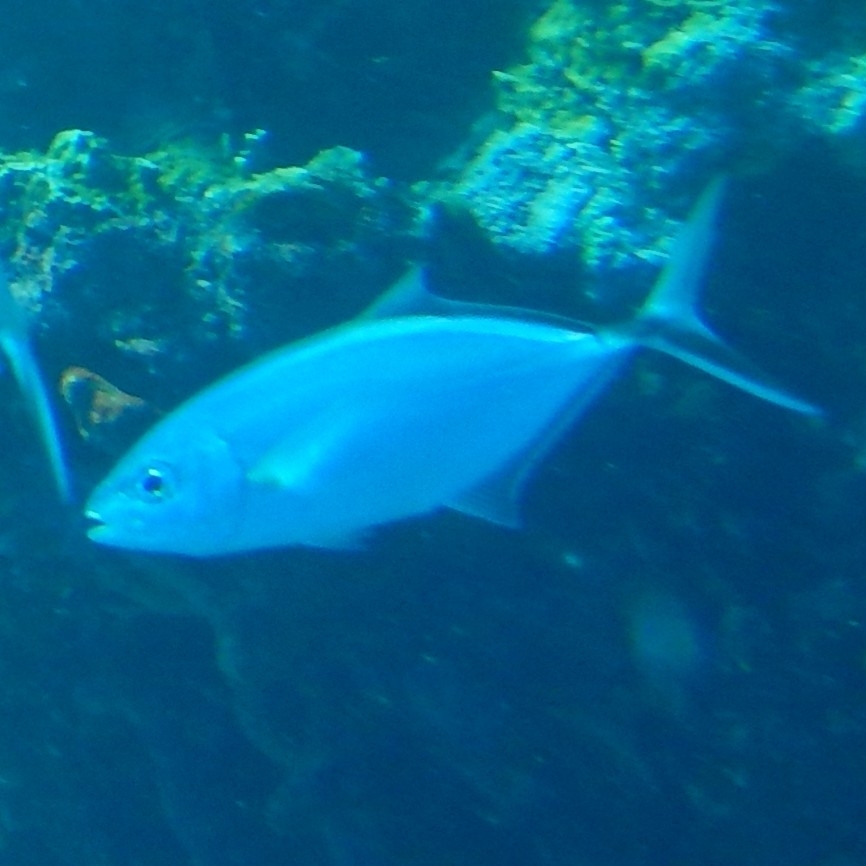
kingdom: Animalia
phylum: Chordata
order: Perciformes
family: Carangidae
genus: Caranx
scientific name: Caranx ruber
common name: Bar jack
